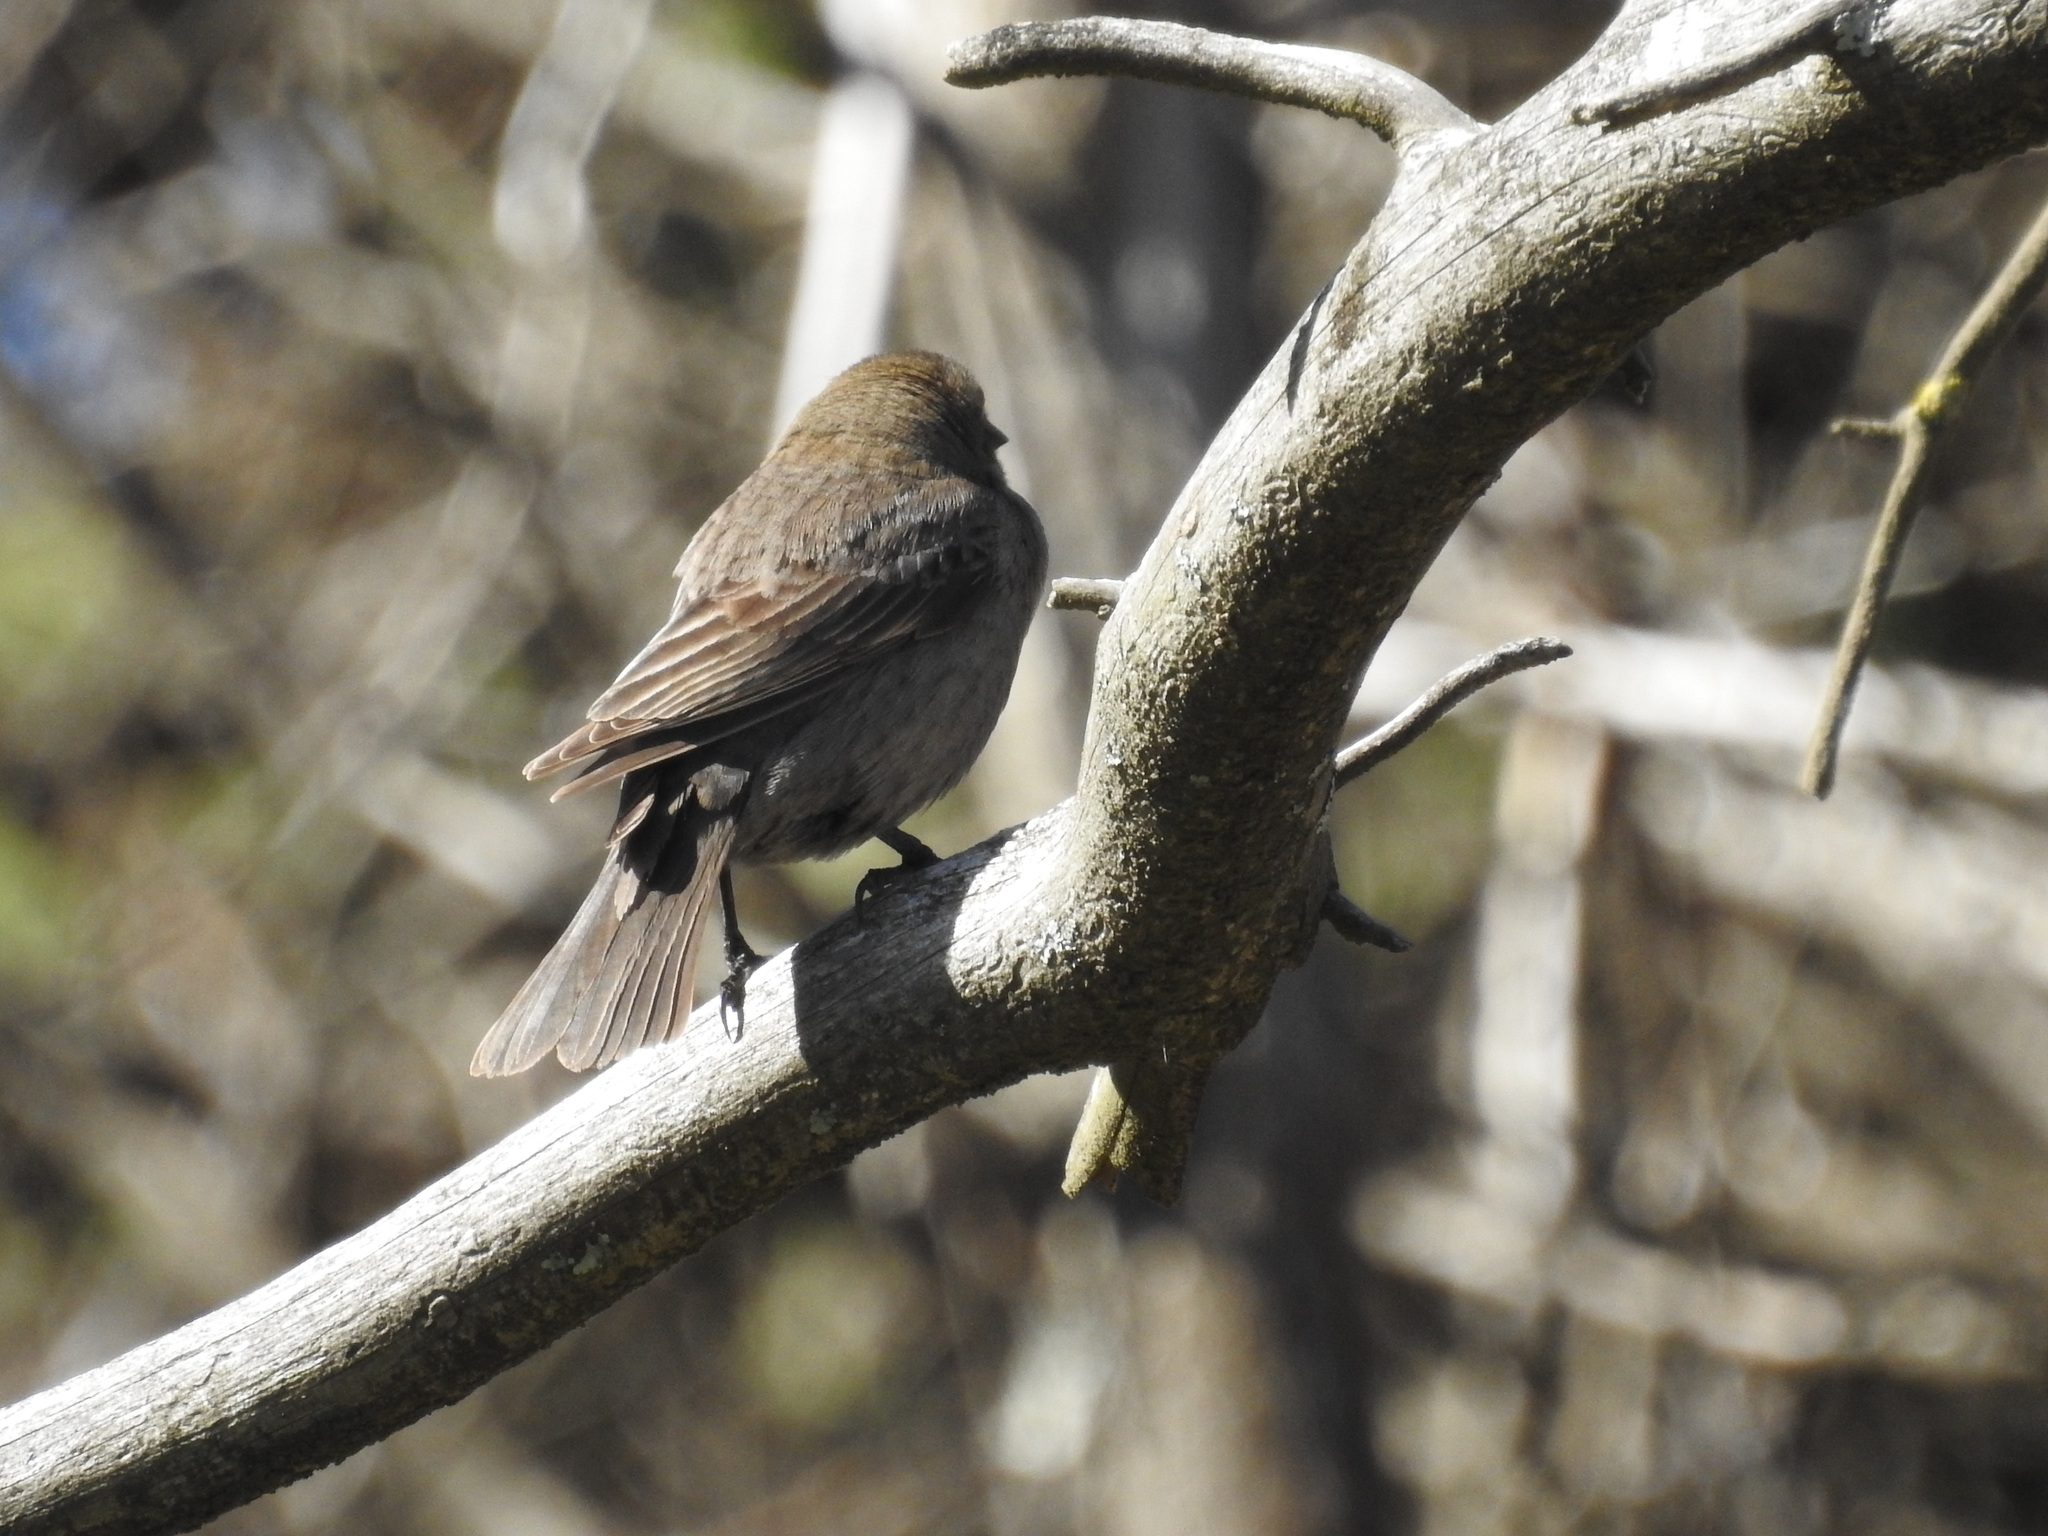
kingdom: Animalia
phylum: Chordata
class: Aves
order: Passeriformes
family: Icteridae
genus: Molothrus
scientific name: Molothrus bonariensis
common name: Shiny cowbird
